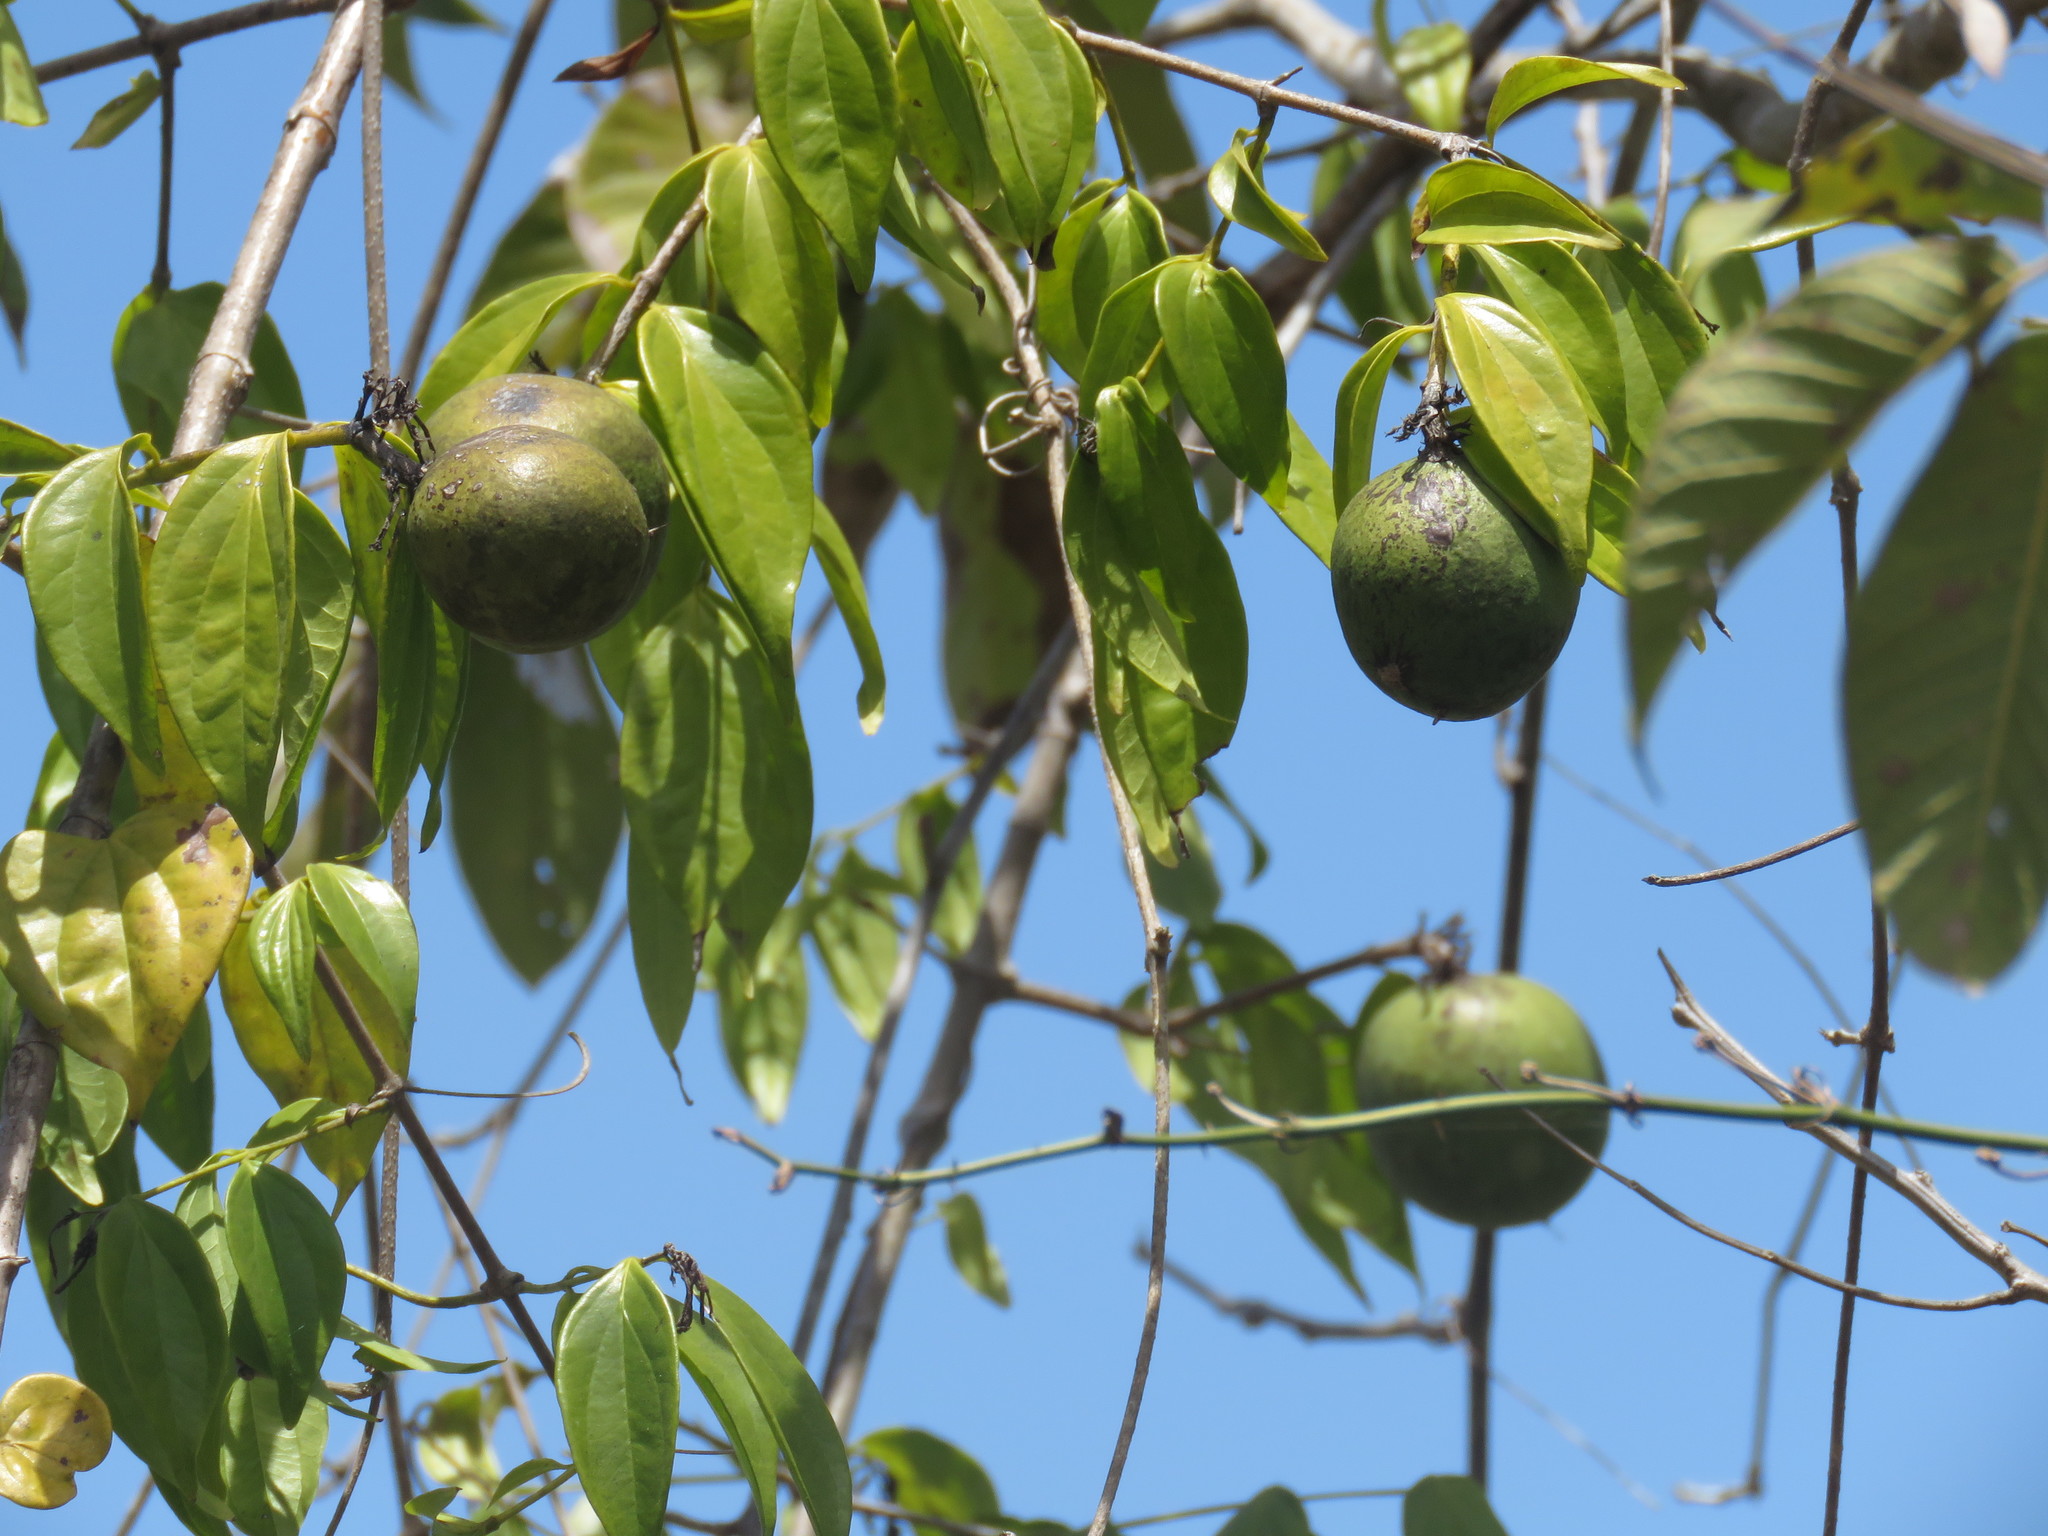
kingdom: Plantae
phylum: Tracheophyta
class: Magnoliopsida
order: Gentianales
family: Loganiaceae
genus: Strychnos
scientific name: Strychnos panamensis
